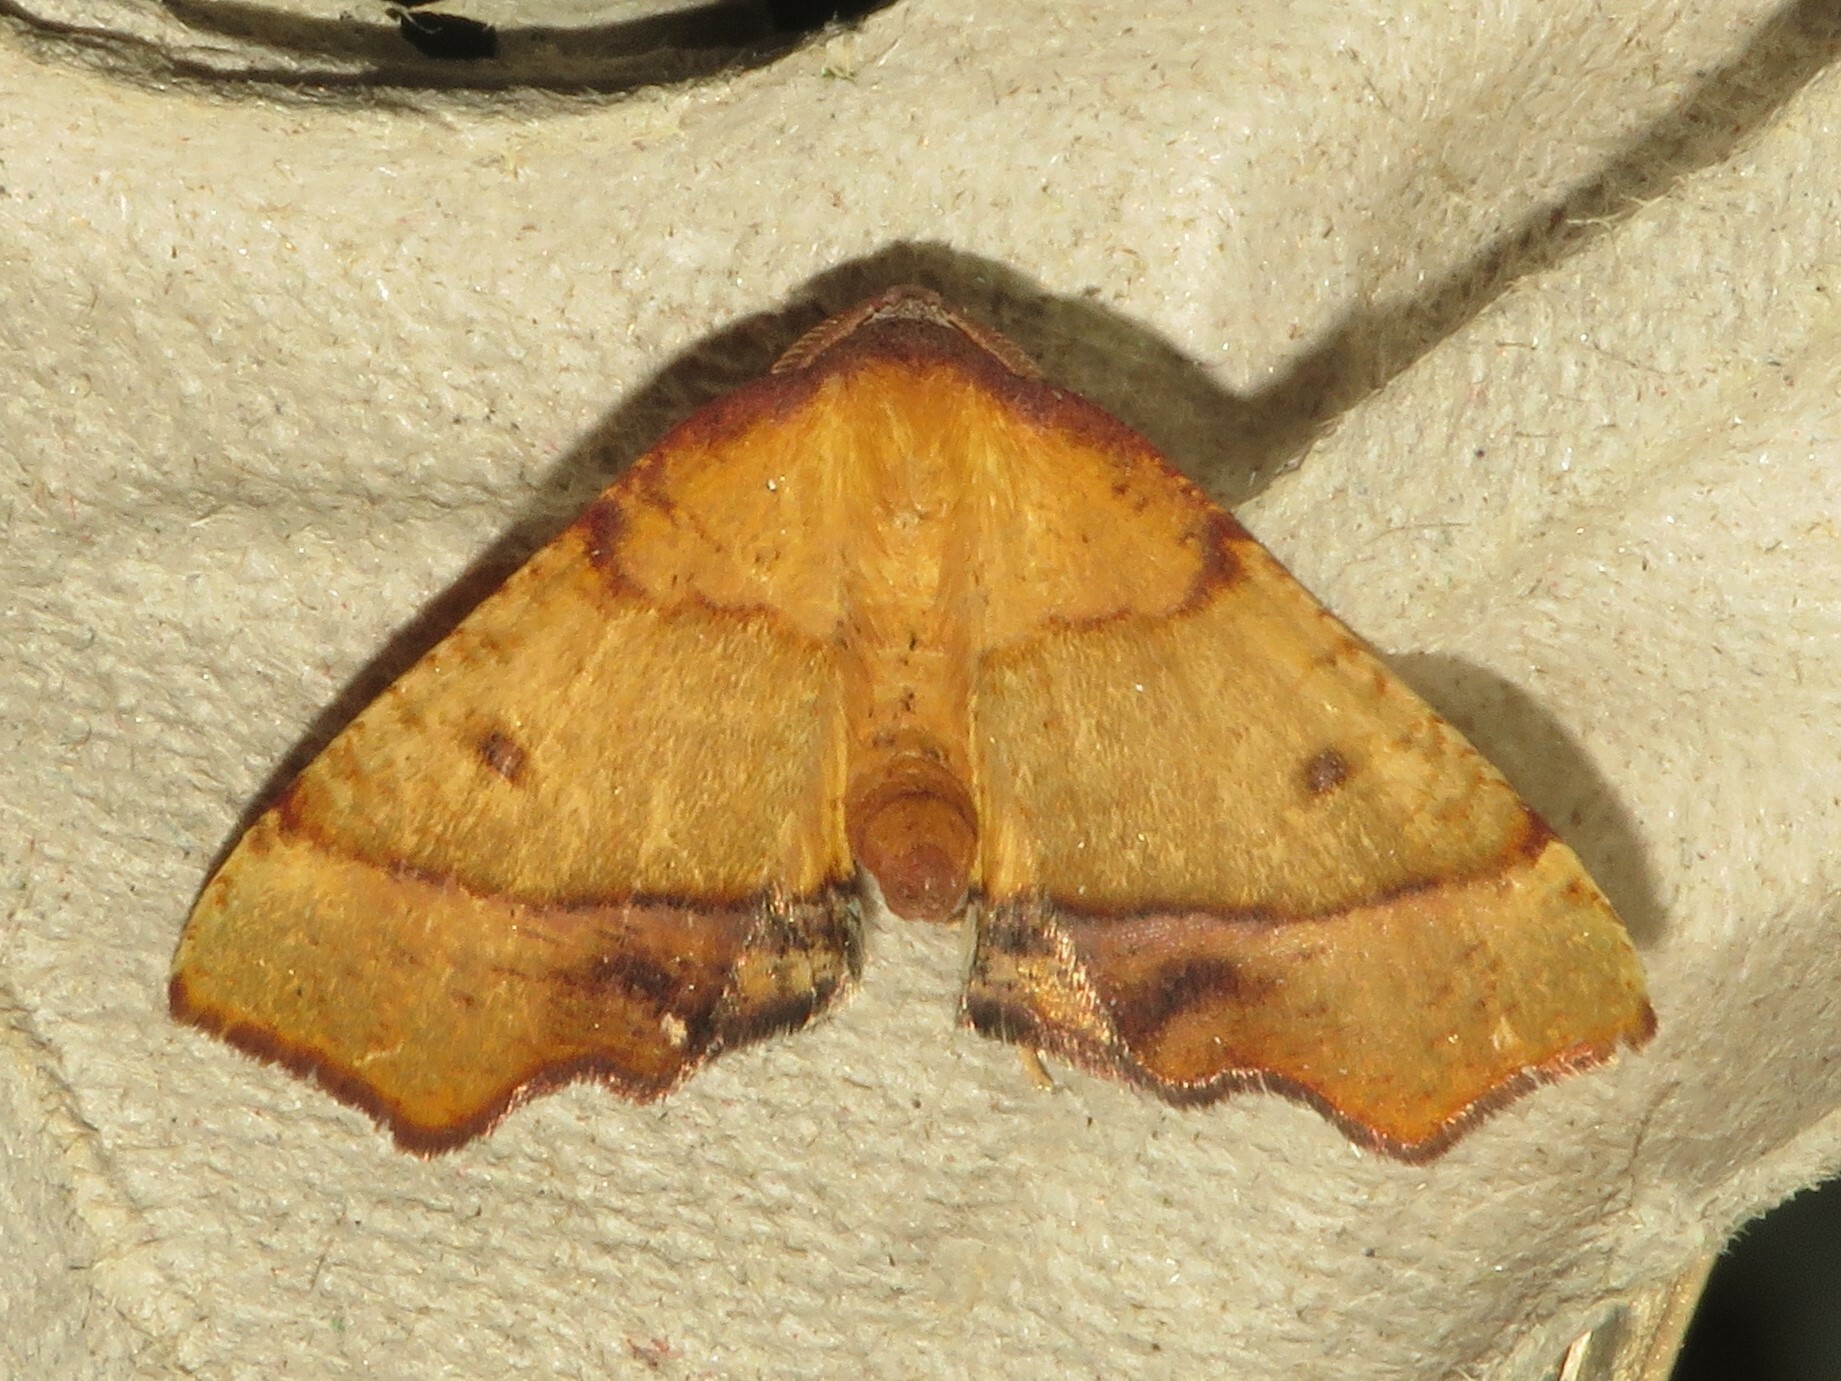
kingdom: Animalia
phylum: Arthropoda
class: Insecta
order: Lepidoptera
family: Geometridae
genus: Plagodis
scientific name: Plagodis phlogosaria
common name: Straight-lined plagodis
